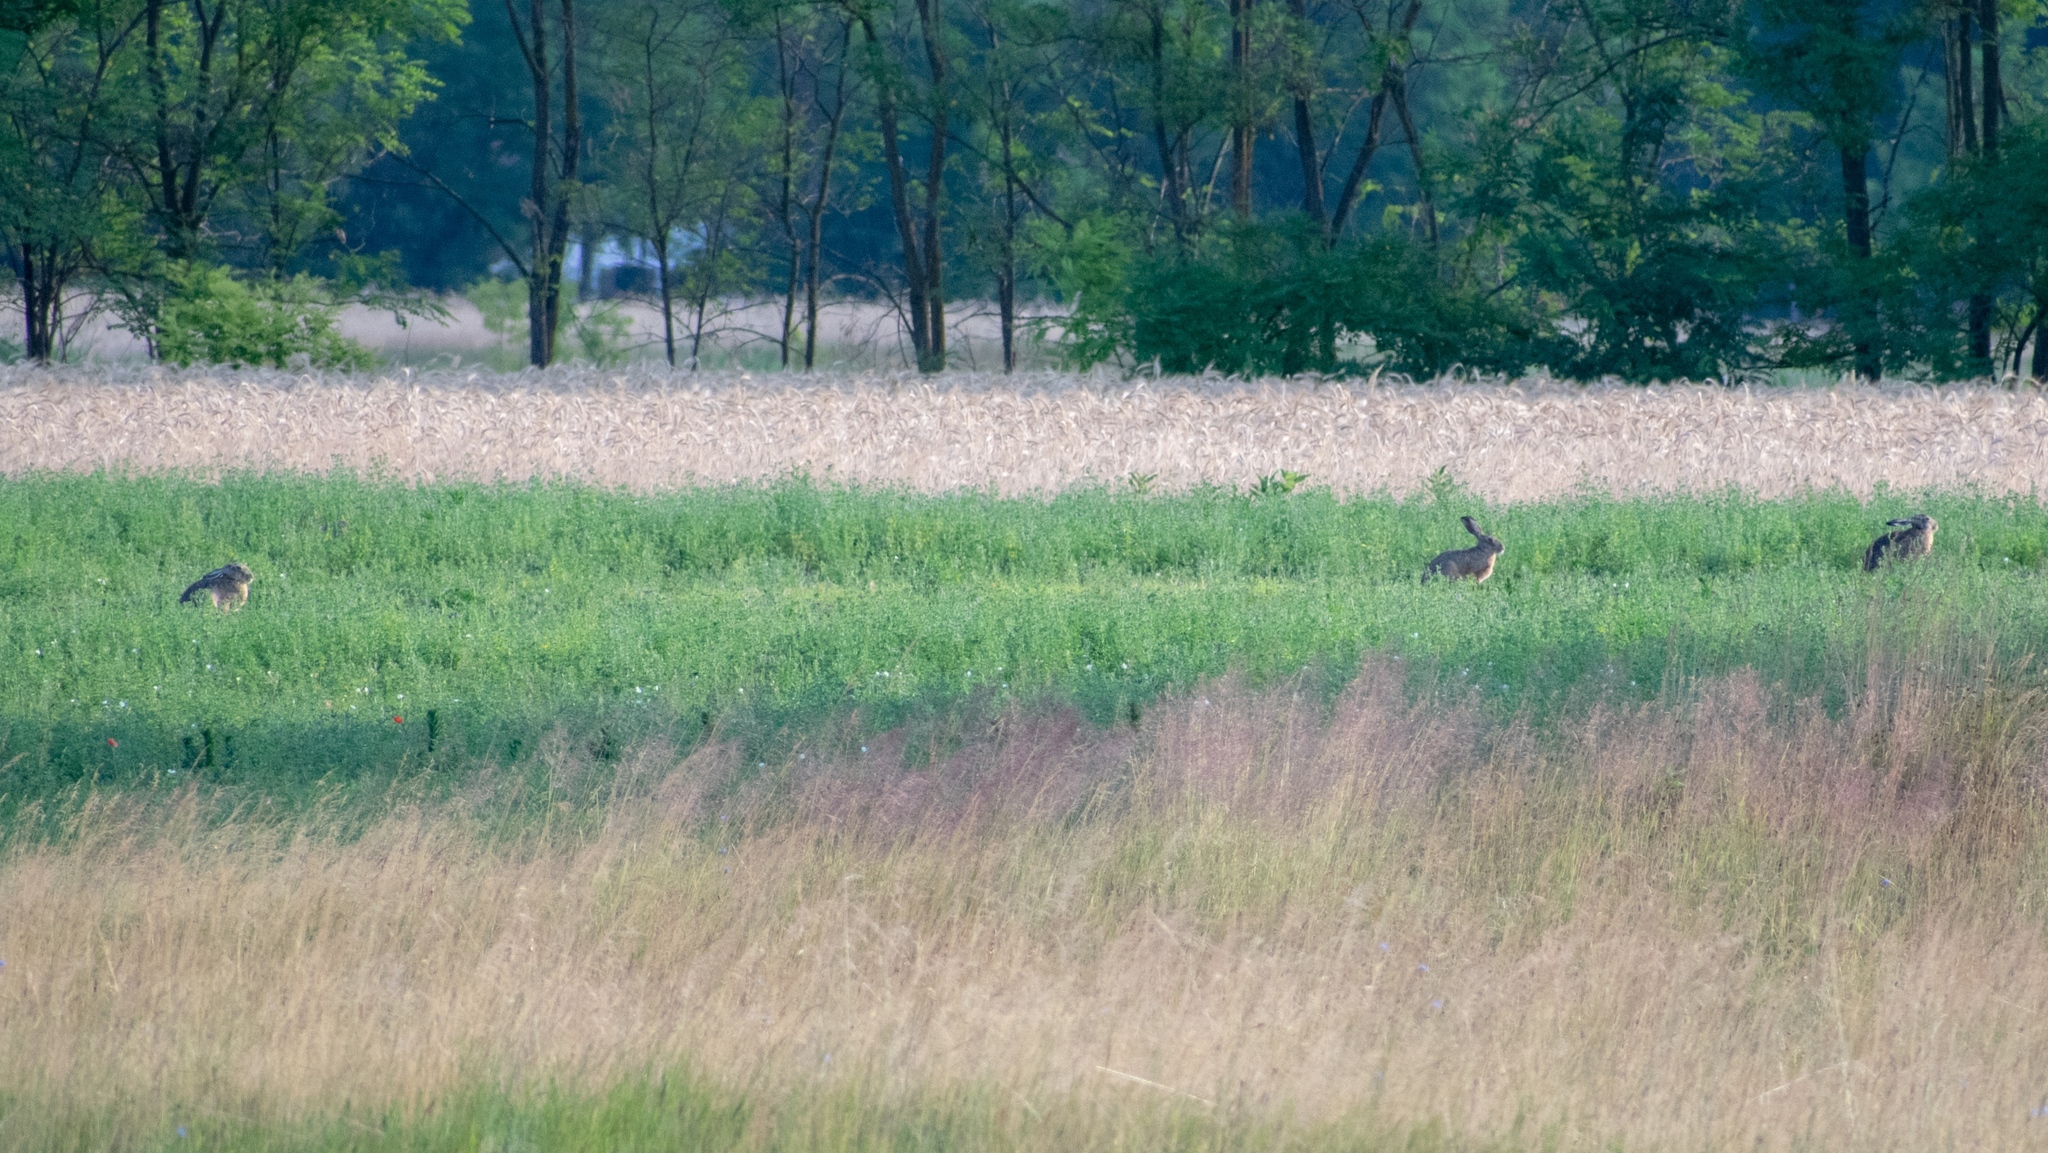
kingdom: Animalia
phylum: Chordata
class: Mammalia
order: Lagomorpha
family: Leporidae
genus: Lepus
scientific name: Lepus europaeus
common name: European hare
